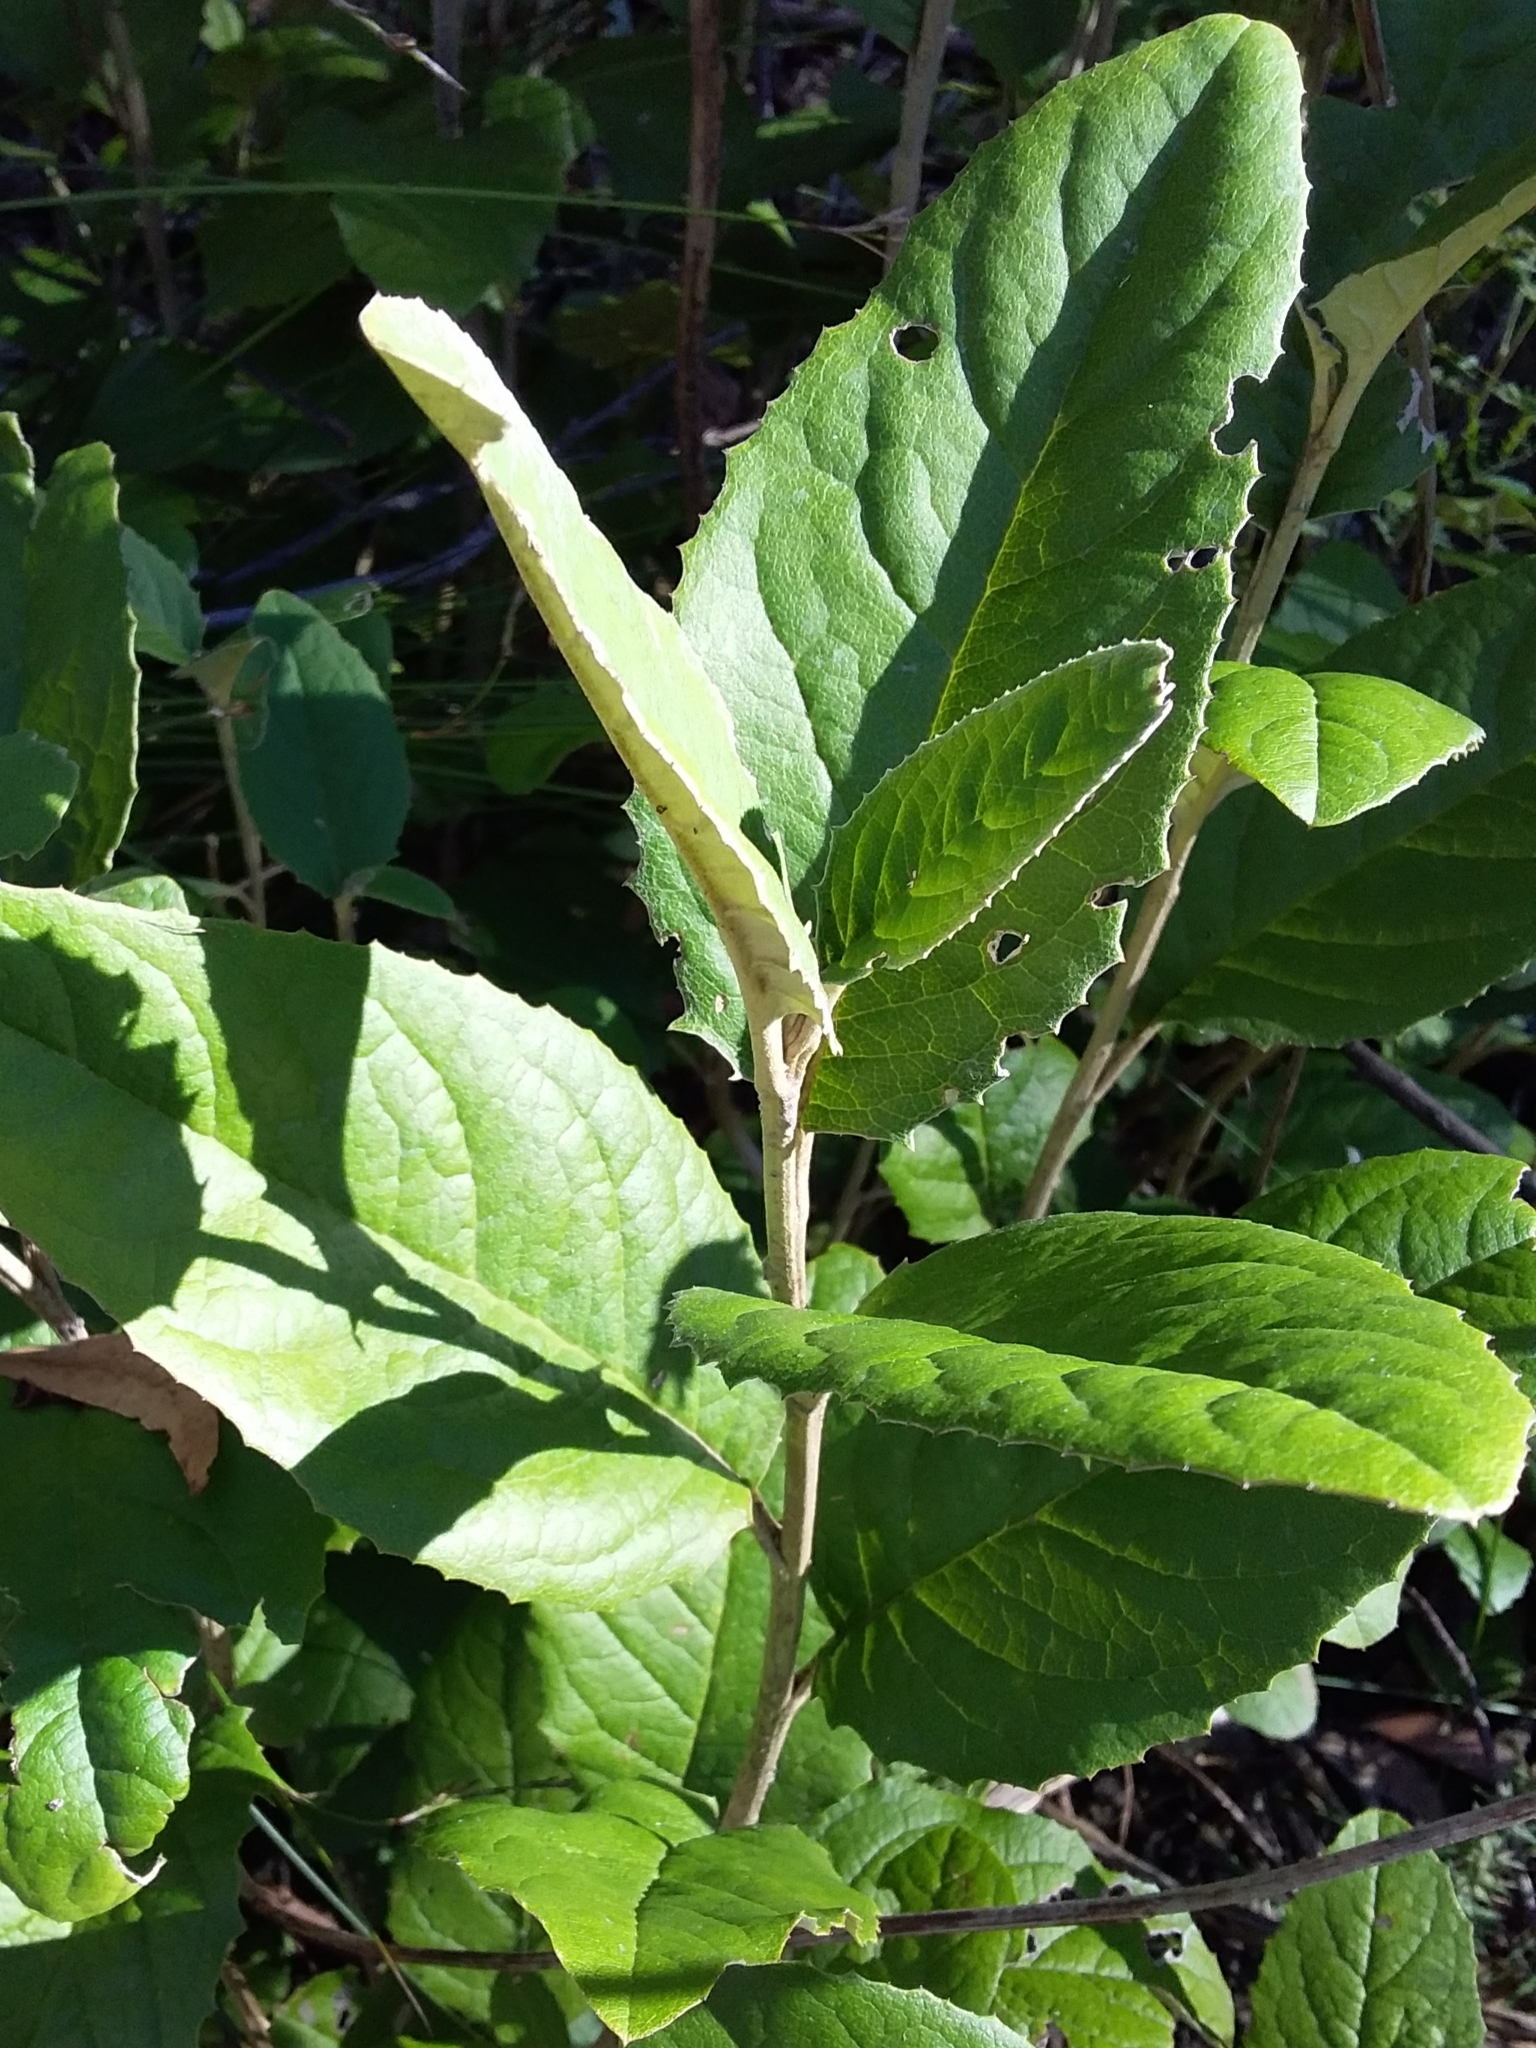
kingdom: Plantae
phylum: Tracheophyta
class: Magnoliopsida
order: Asterales
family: Asteraceae
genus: Olearia
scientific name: Olearia grandiflora
